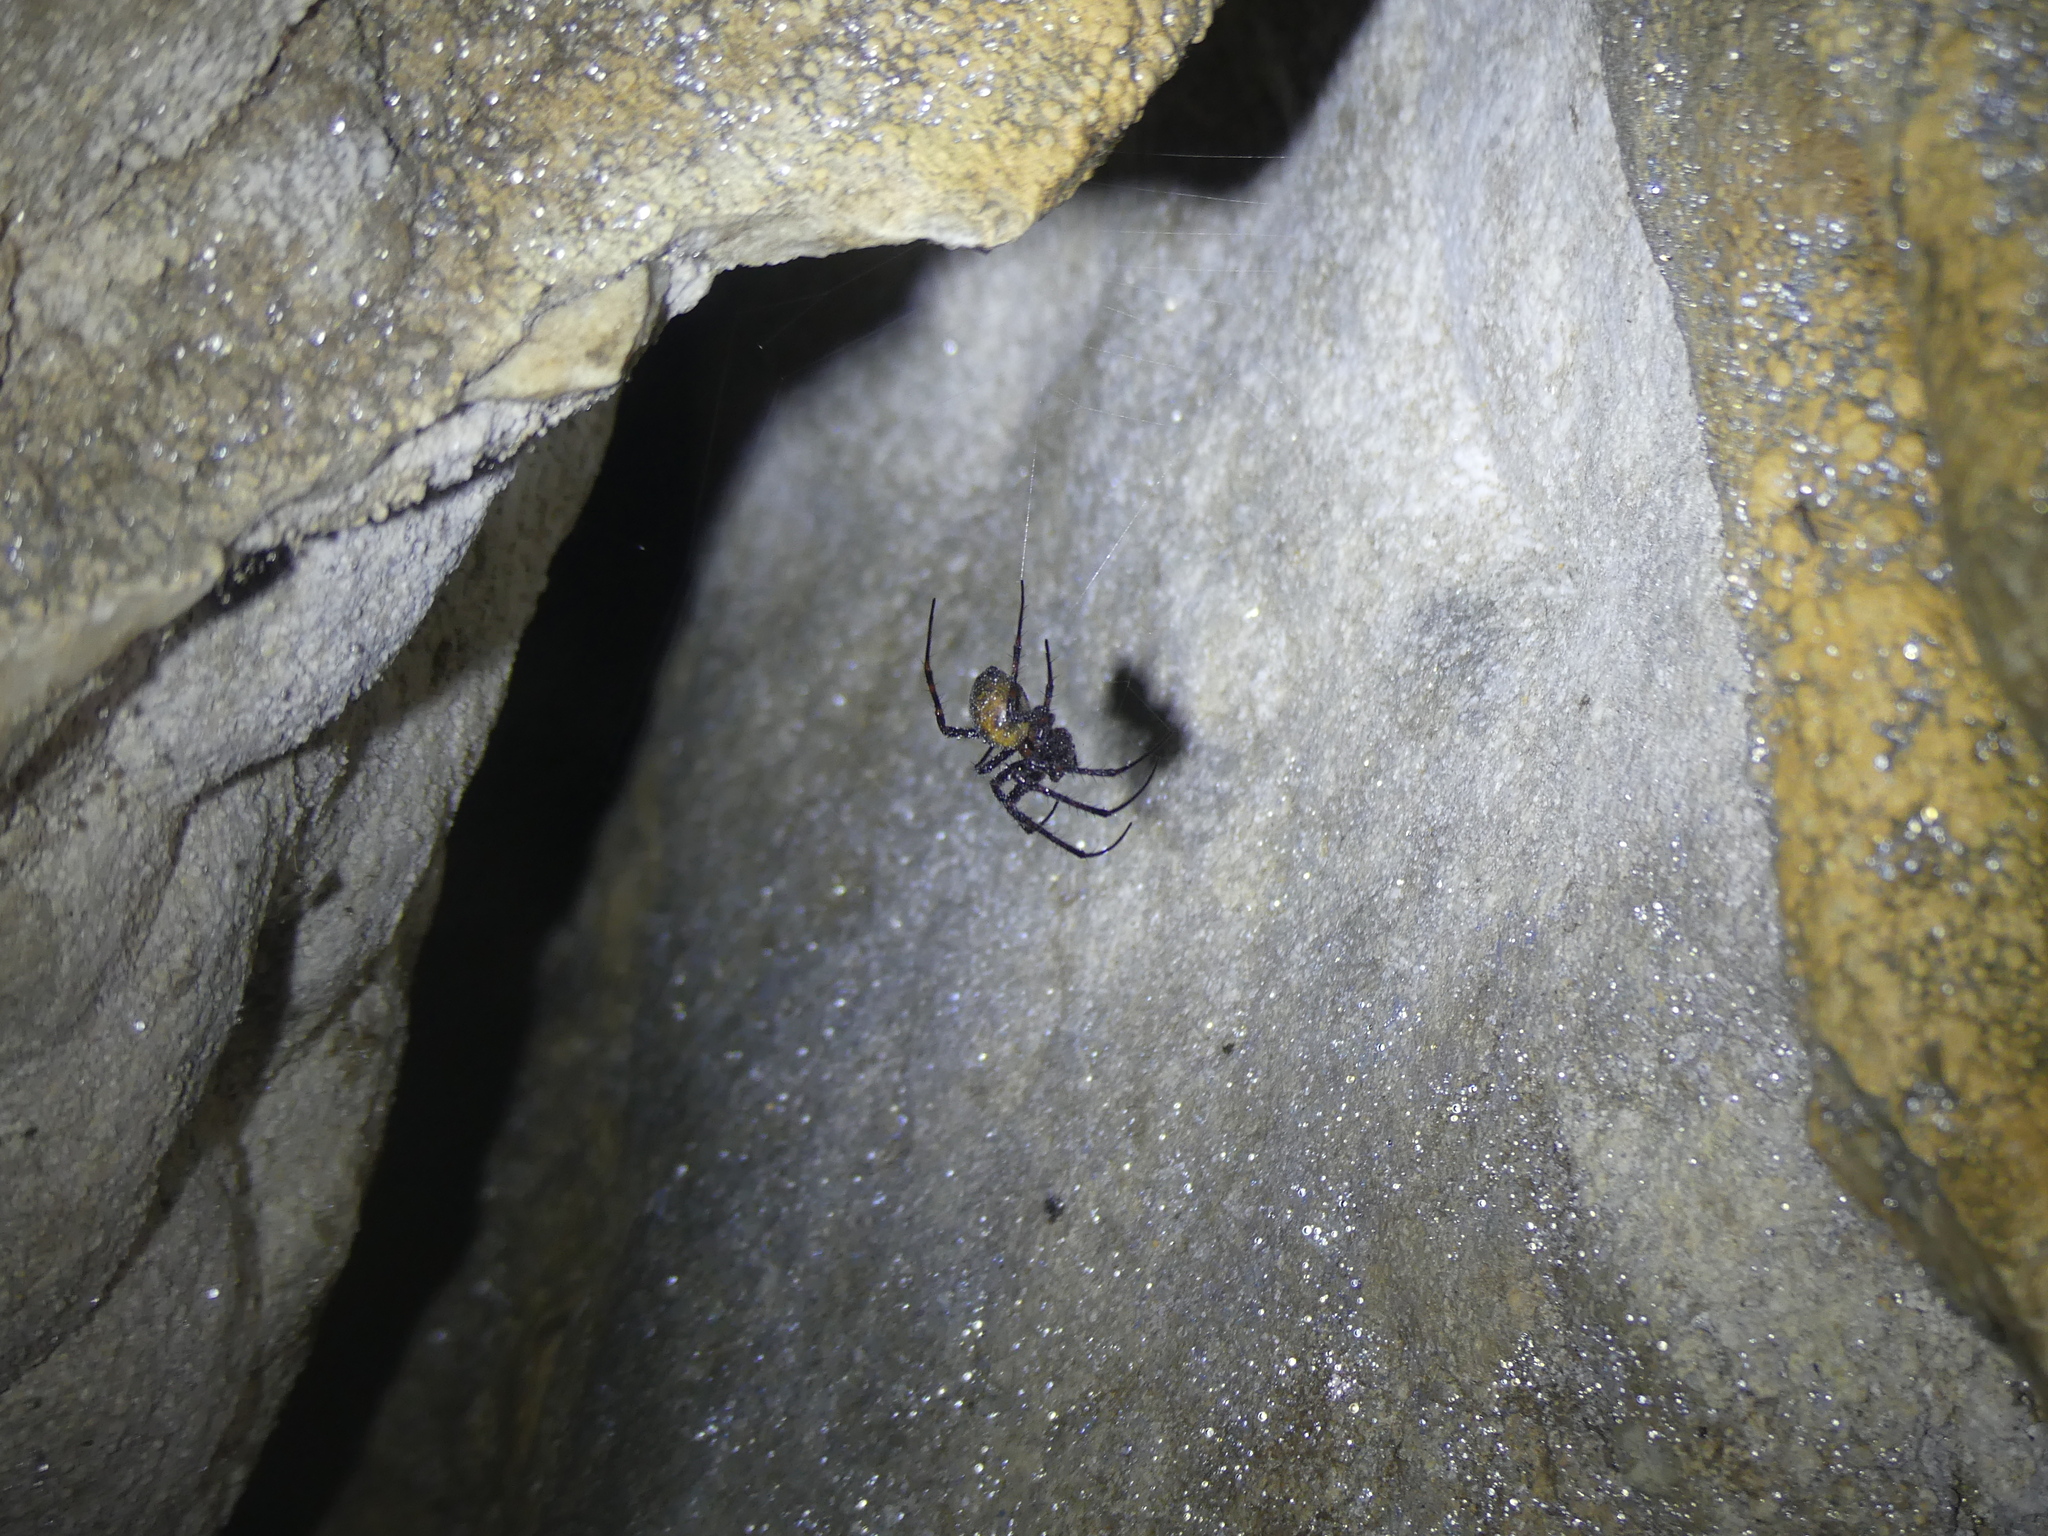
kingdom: Animalia
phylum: Arthropoda
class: Arachnida
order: Araneae
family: Tetragnathidae
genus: Meta
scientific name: Meta menardi
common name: Cave spider
